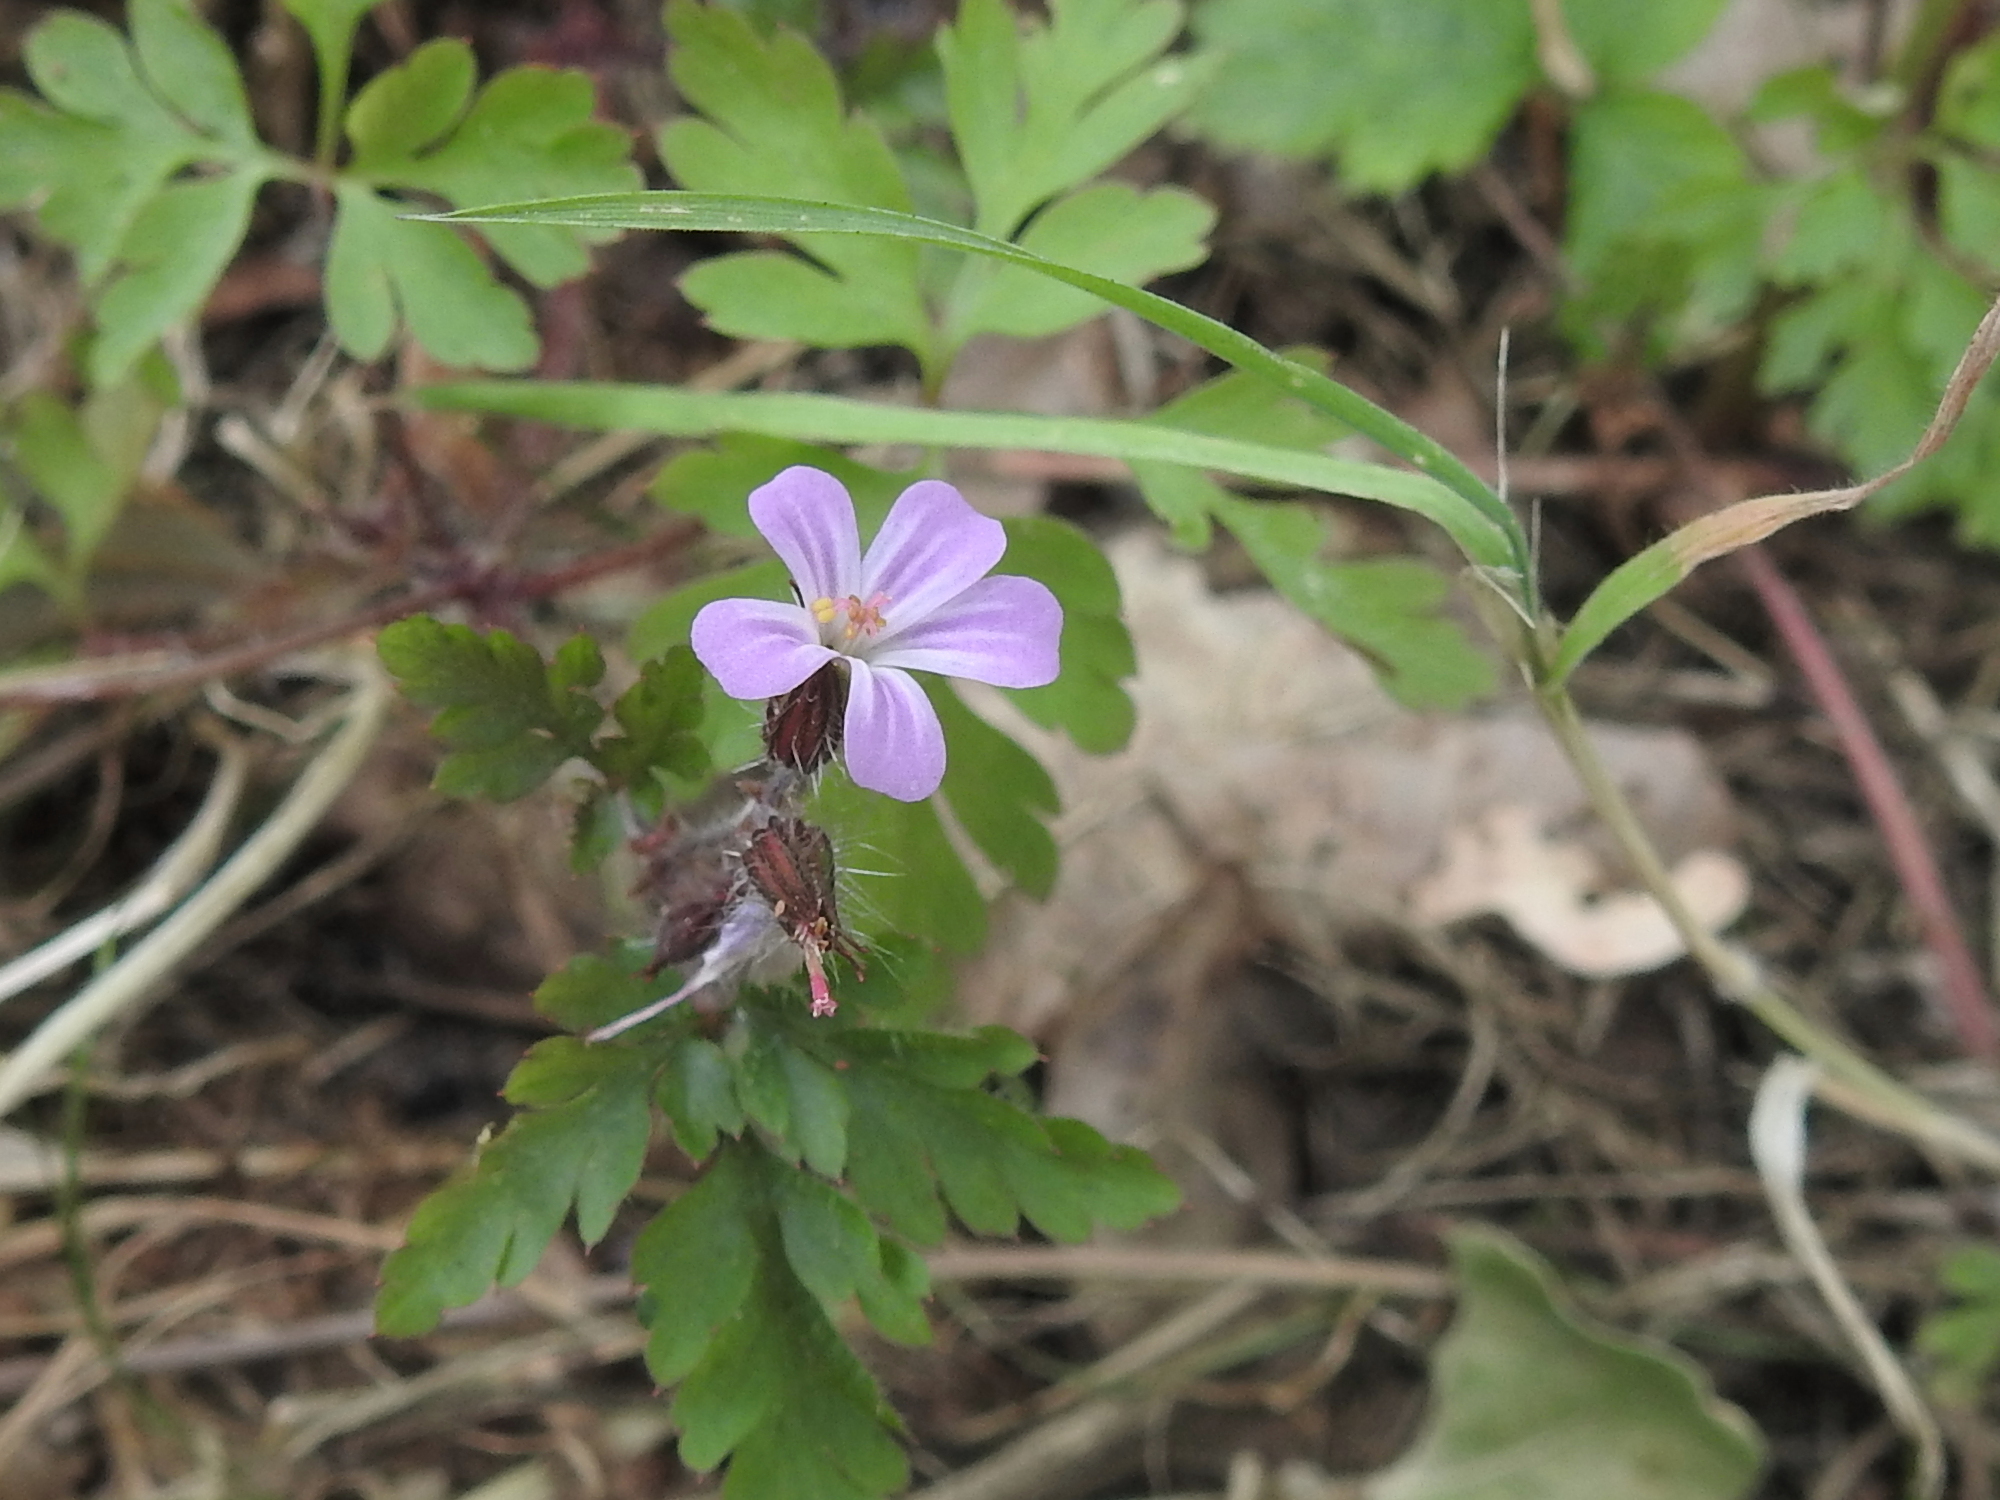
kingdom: Plantae
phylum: Tracheophyta
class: Magnoliopsida
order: Geraniales
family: Geraniaceae
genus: Geranium
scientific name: Geranium robertianum
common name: Herb-robert
